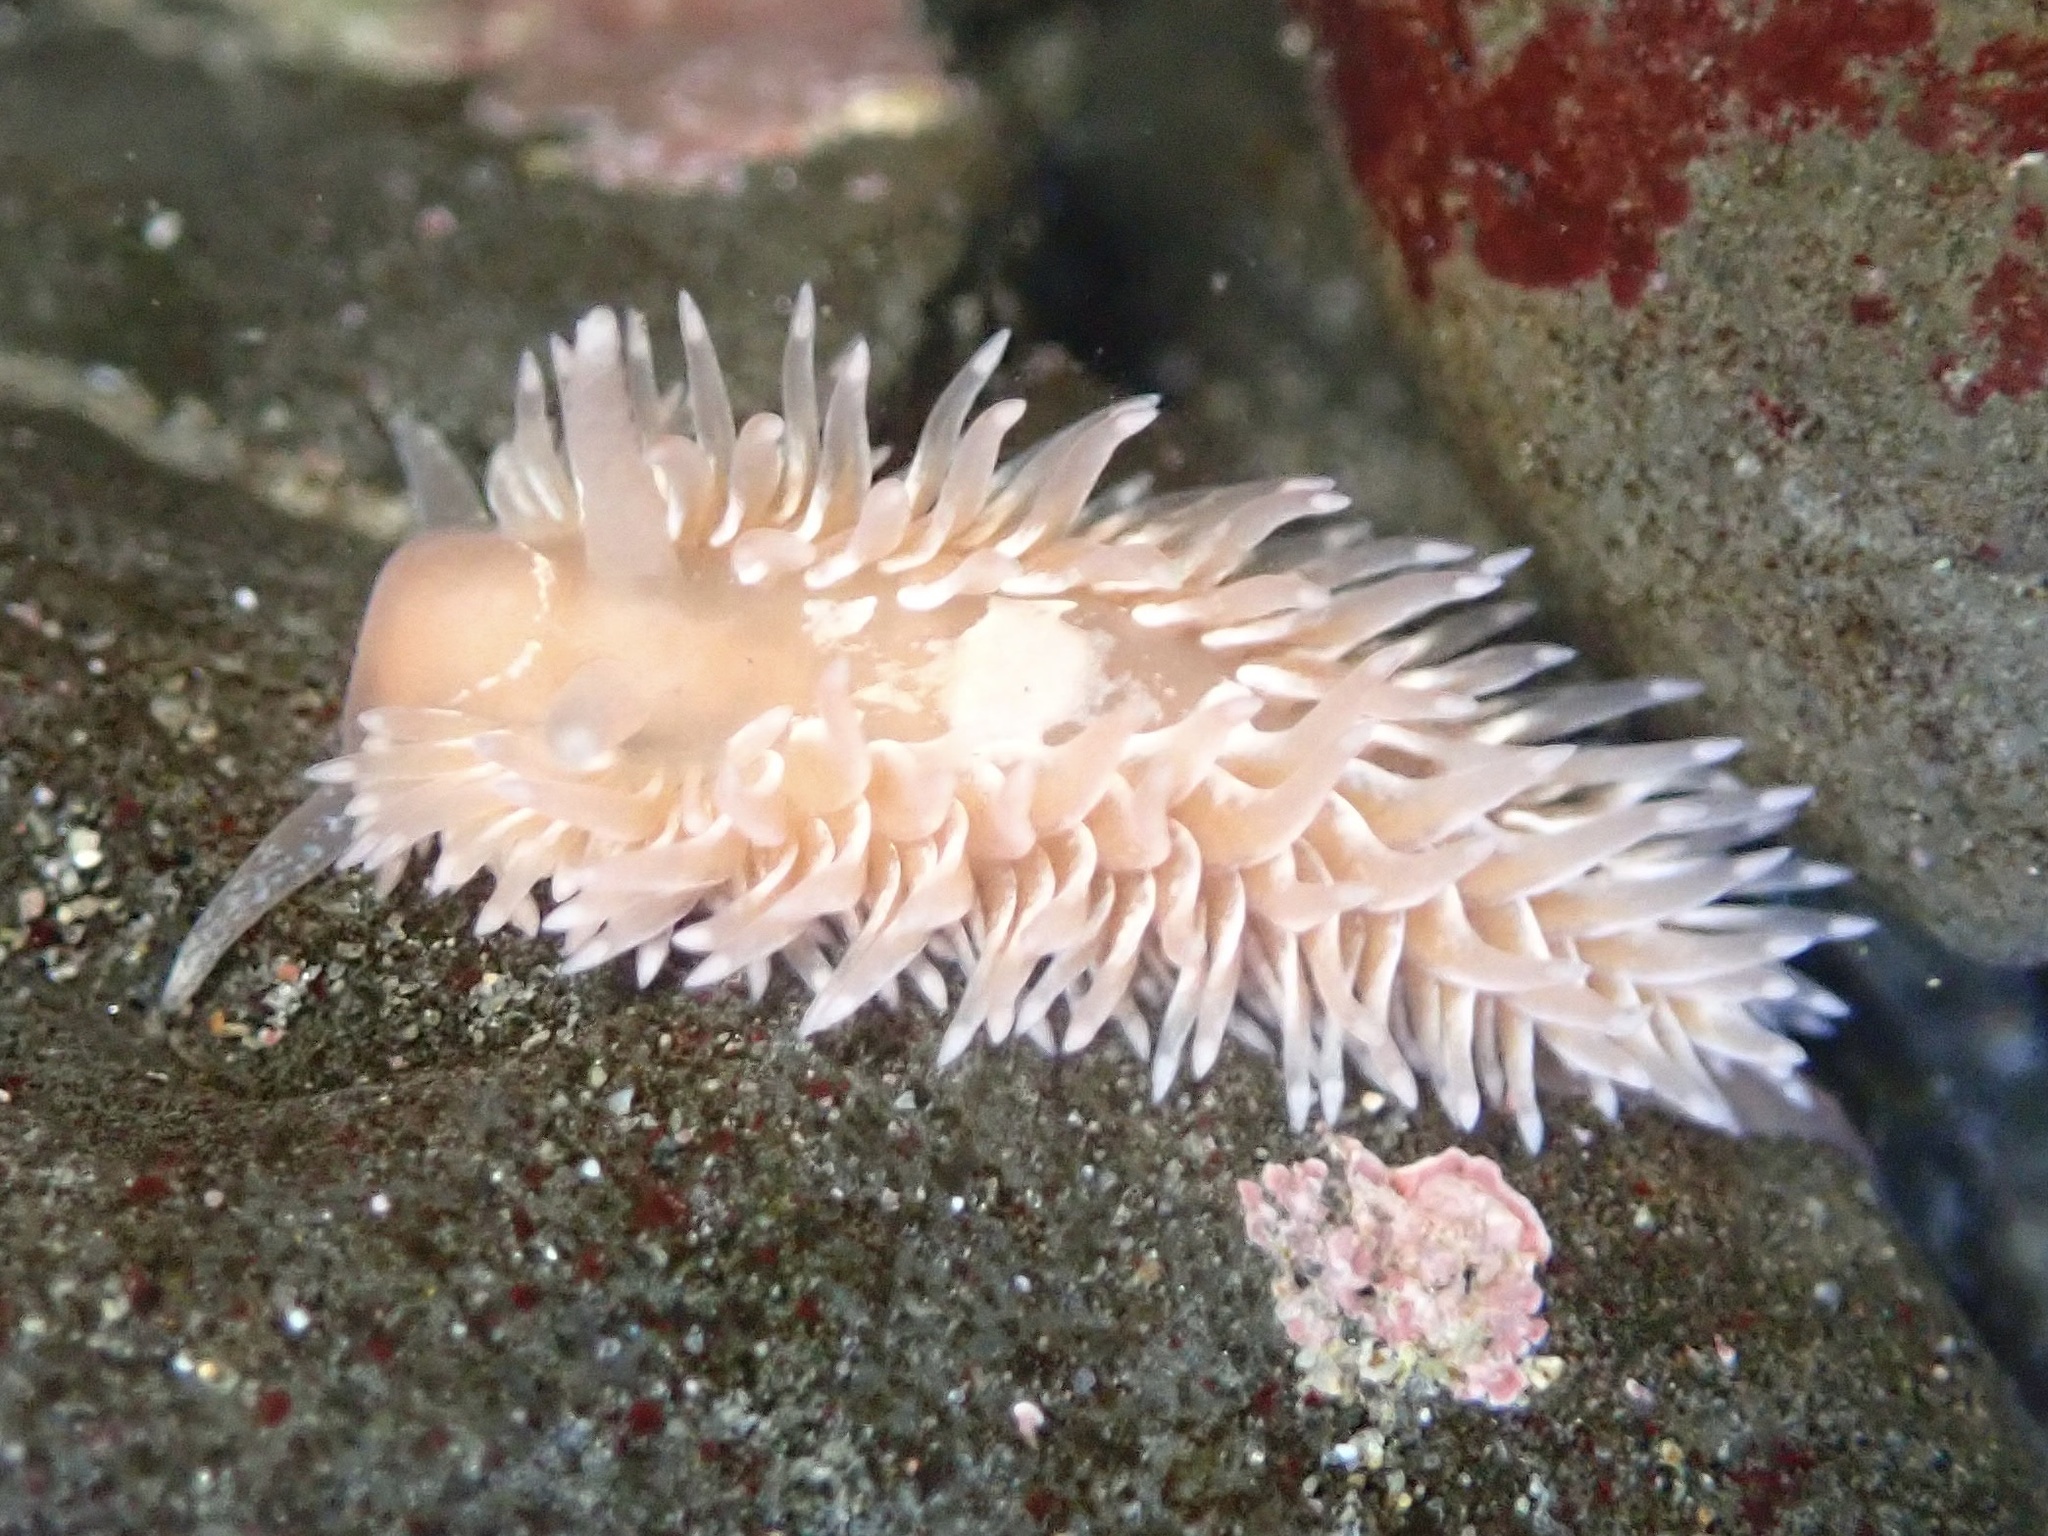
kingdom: Animalia
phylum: Mollusca
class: Gastropoda
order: Nudibranchia
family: Aeolidiidae
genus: Aeolidia
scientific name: Aeolidia loui
